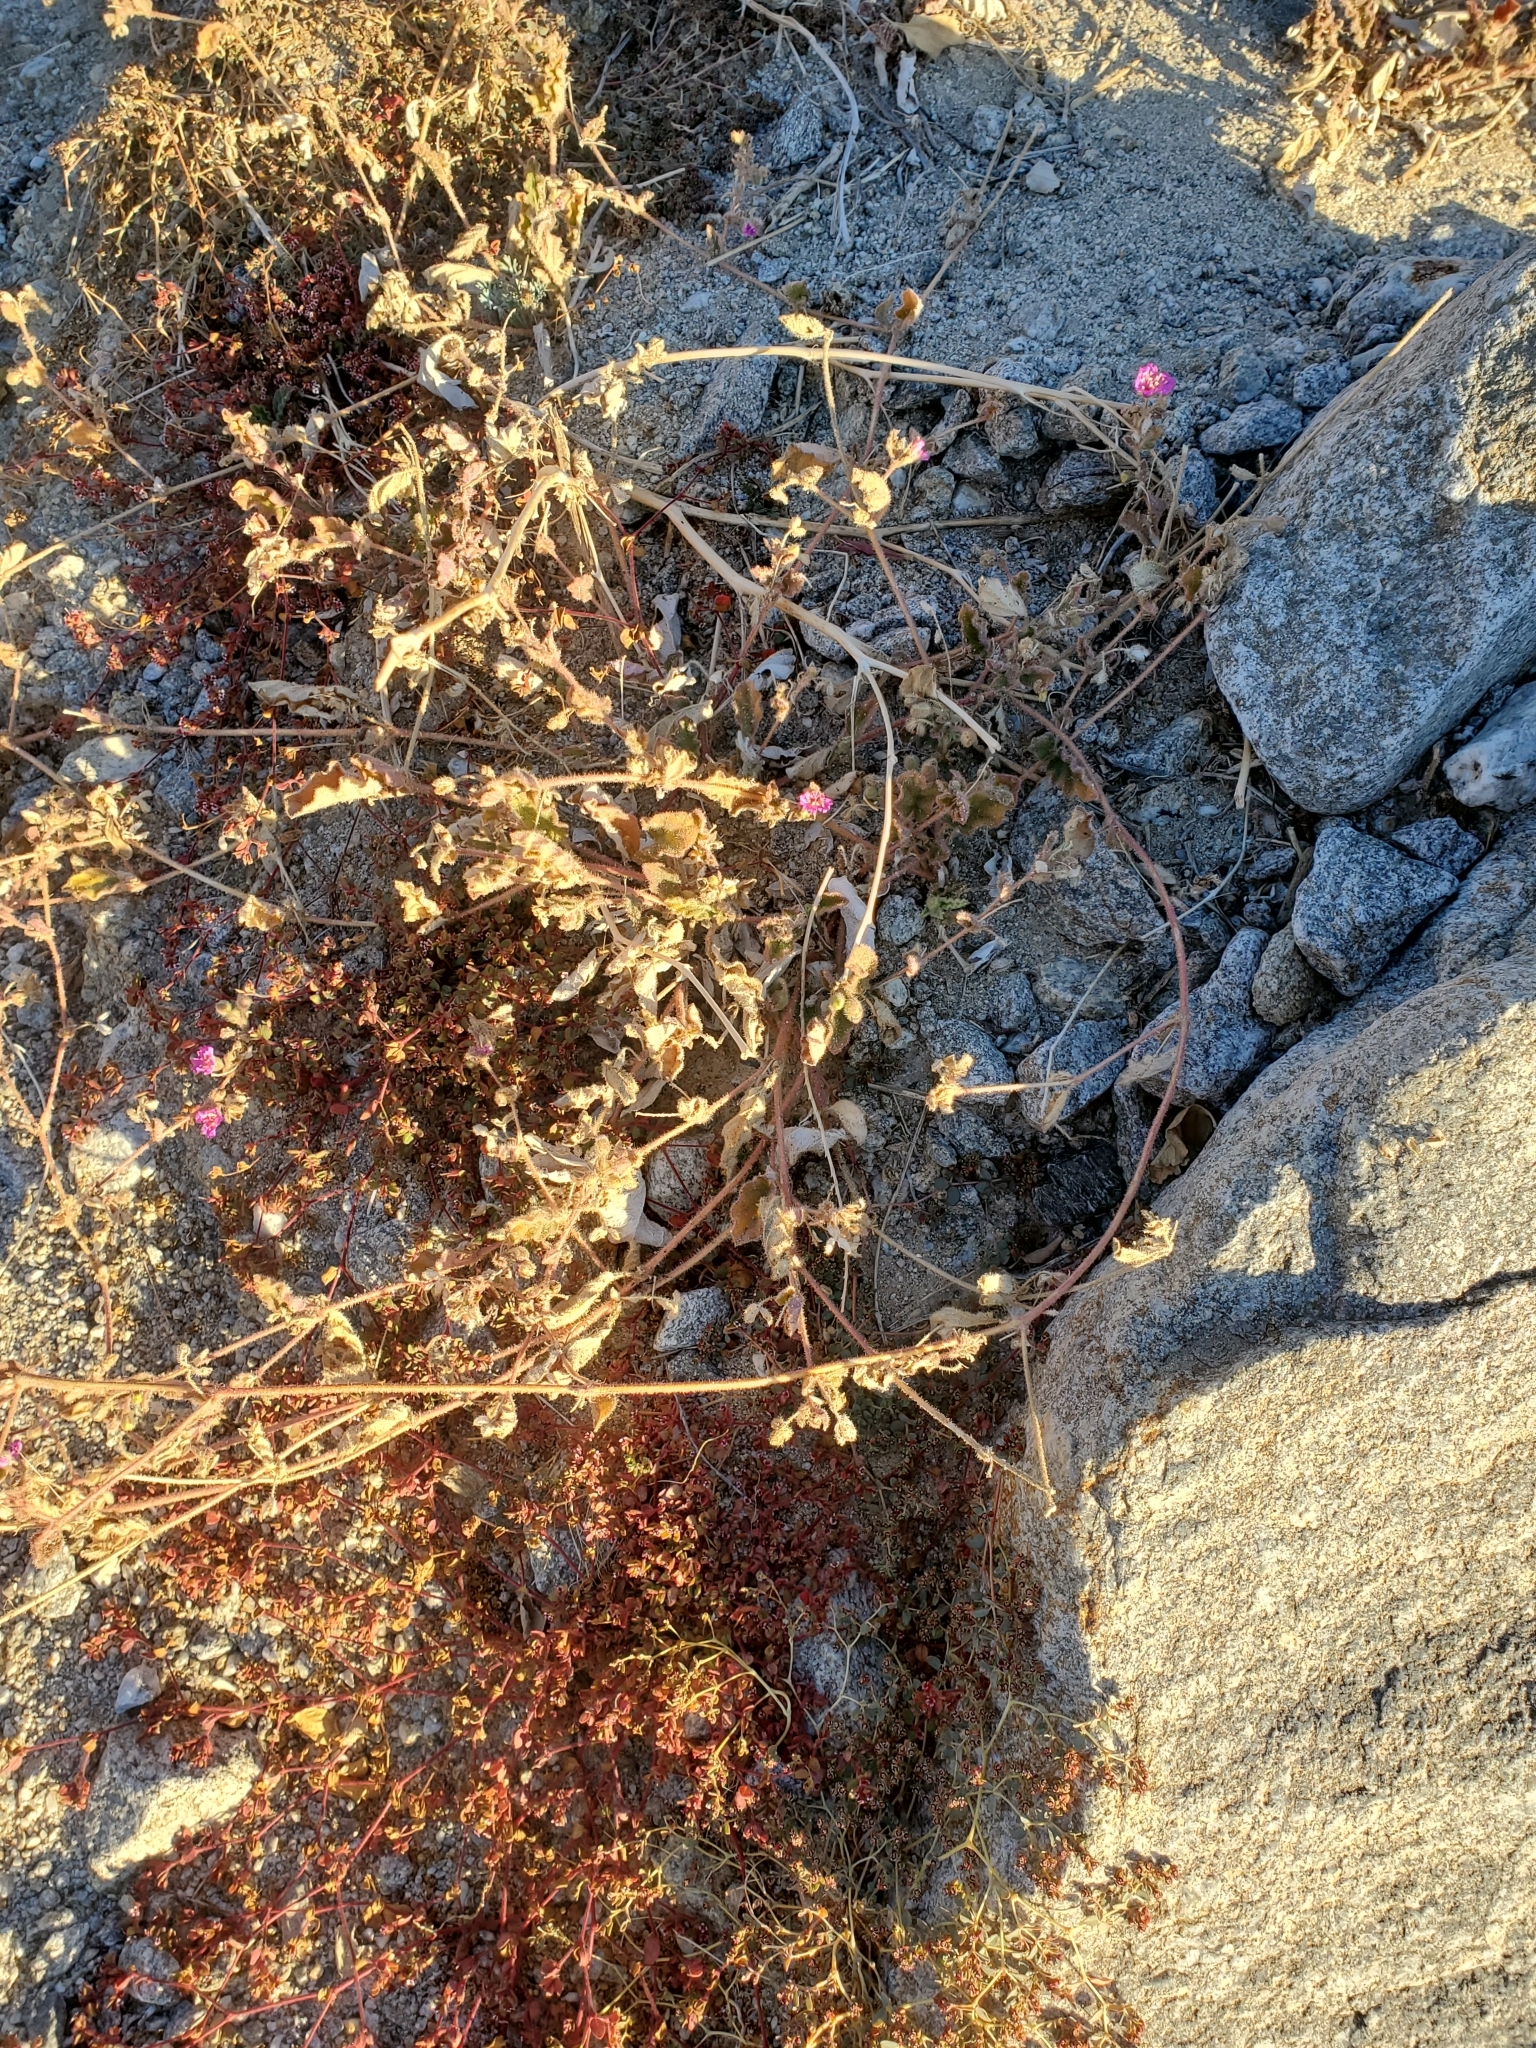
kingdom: Plantae
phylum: Tracheophyta
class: Magnoliopsida
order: Caryophyllales
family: Nyctaginaceae
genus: Allionia
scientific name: Allionia incarnata
